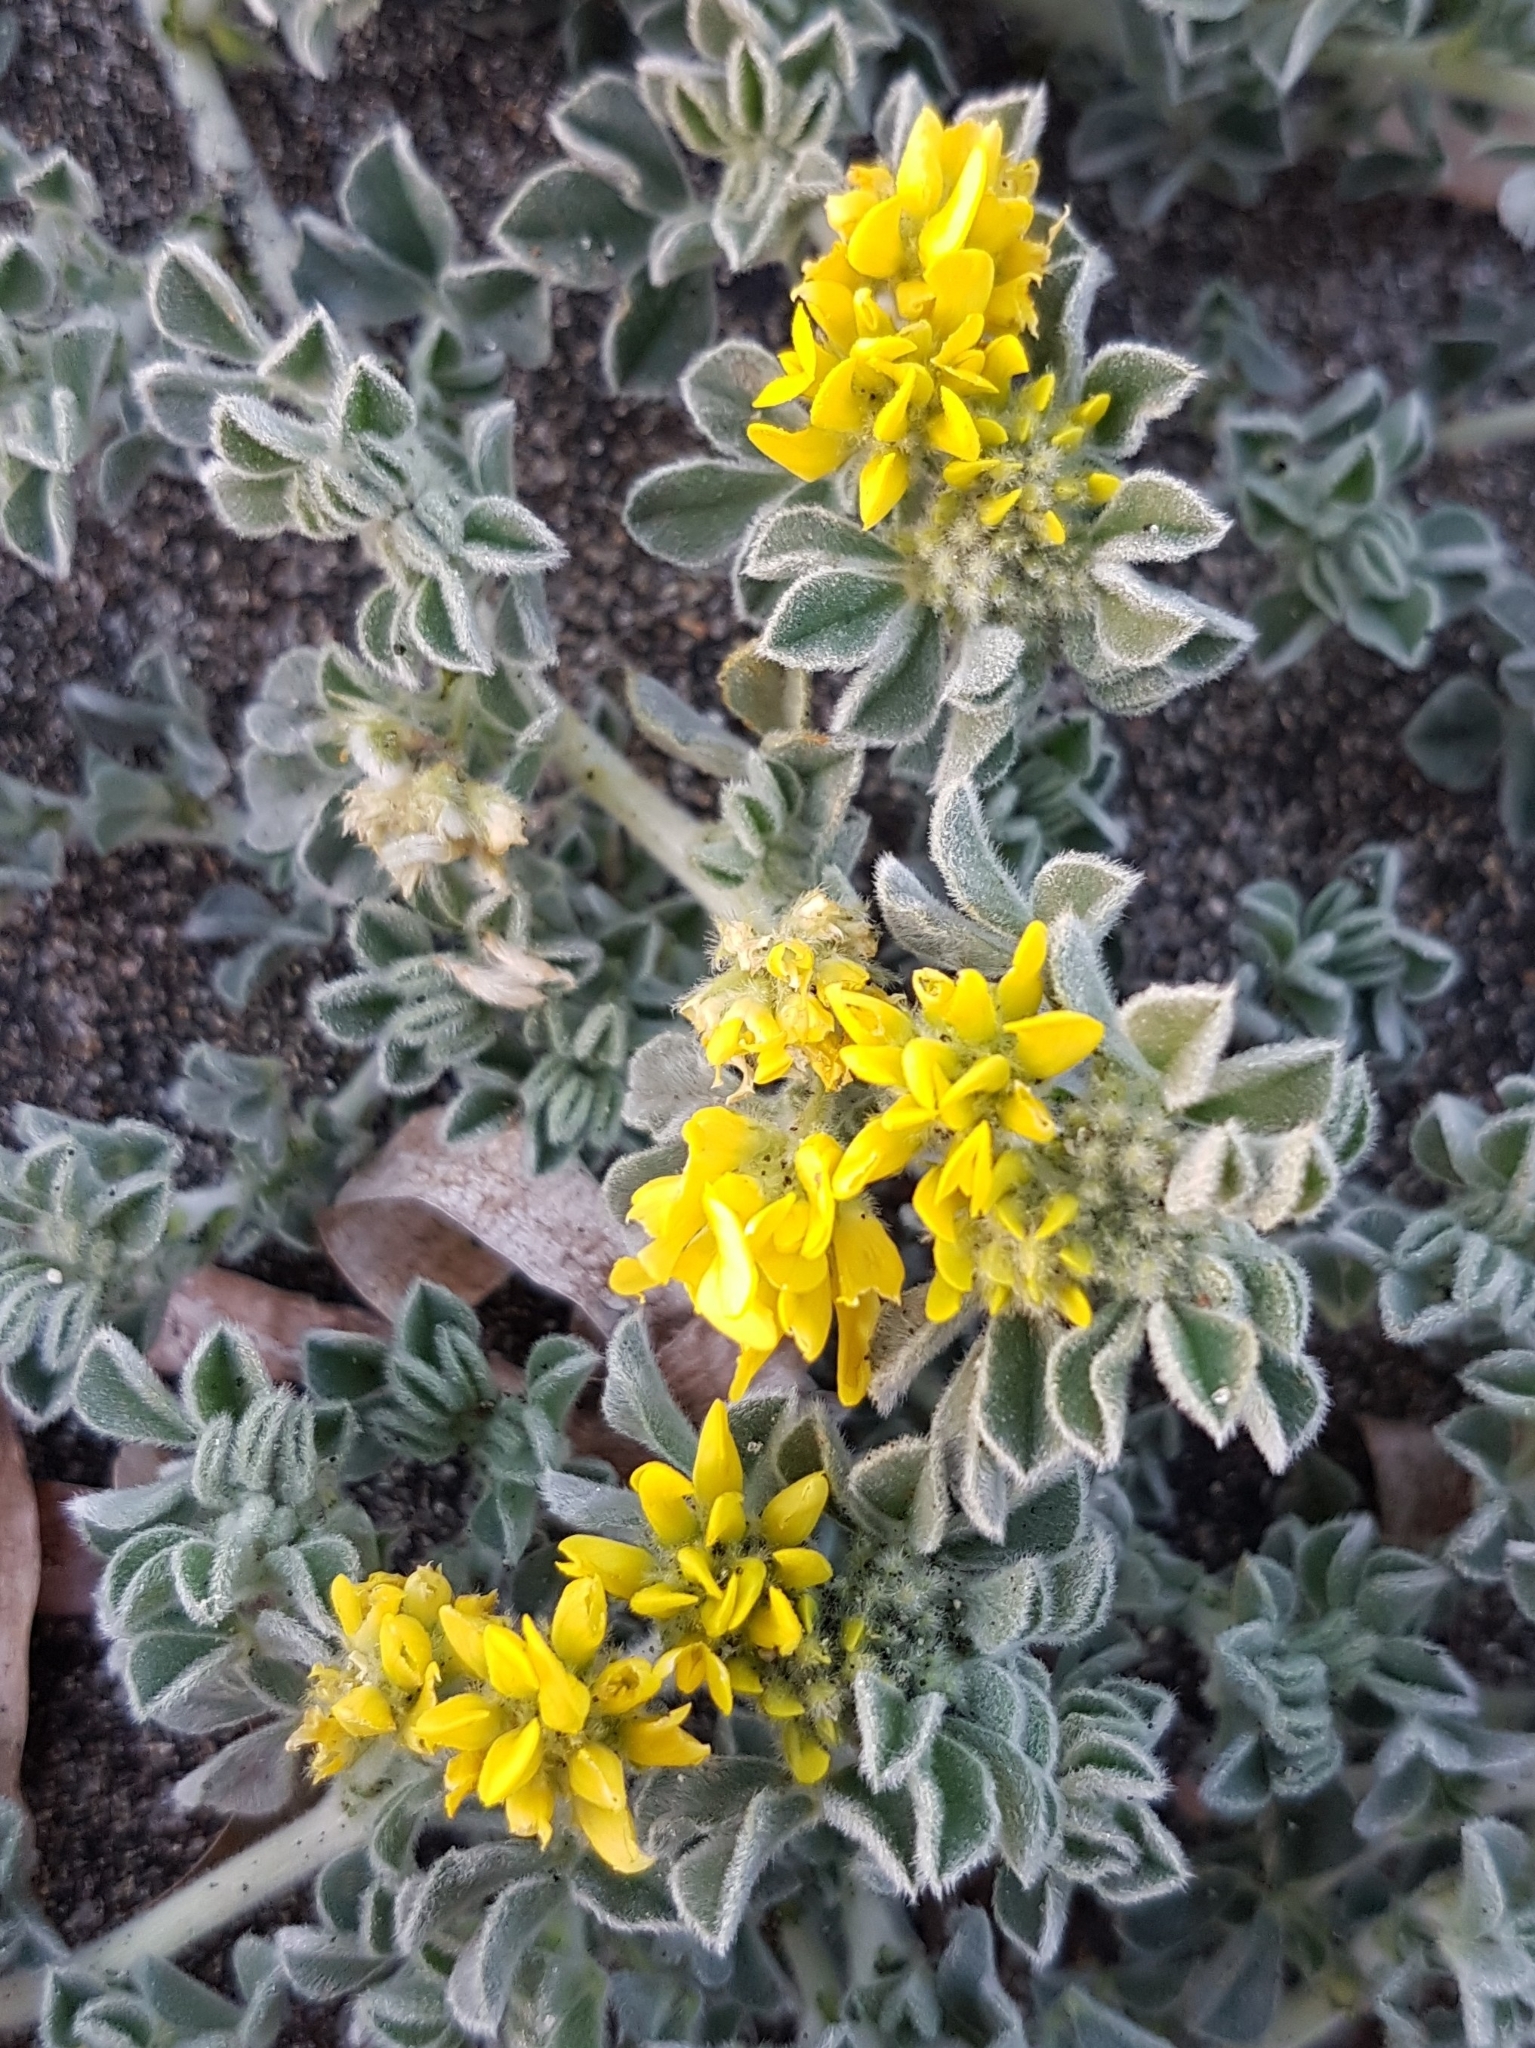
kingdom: Plantae
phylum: Tracheophyta
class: Magnoliopsida
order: Fabales
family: Fabaceae
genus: Medicago
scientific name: Medicago marina
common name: Sea medick
